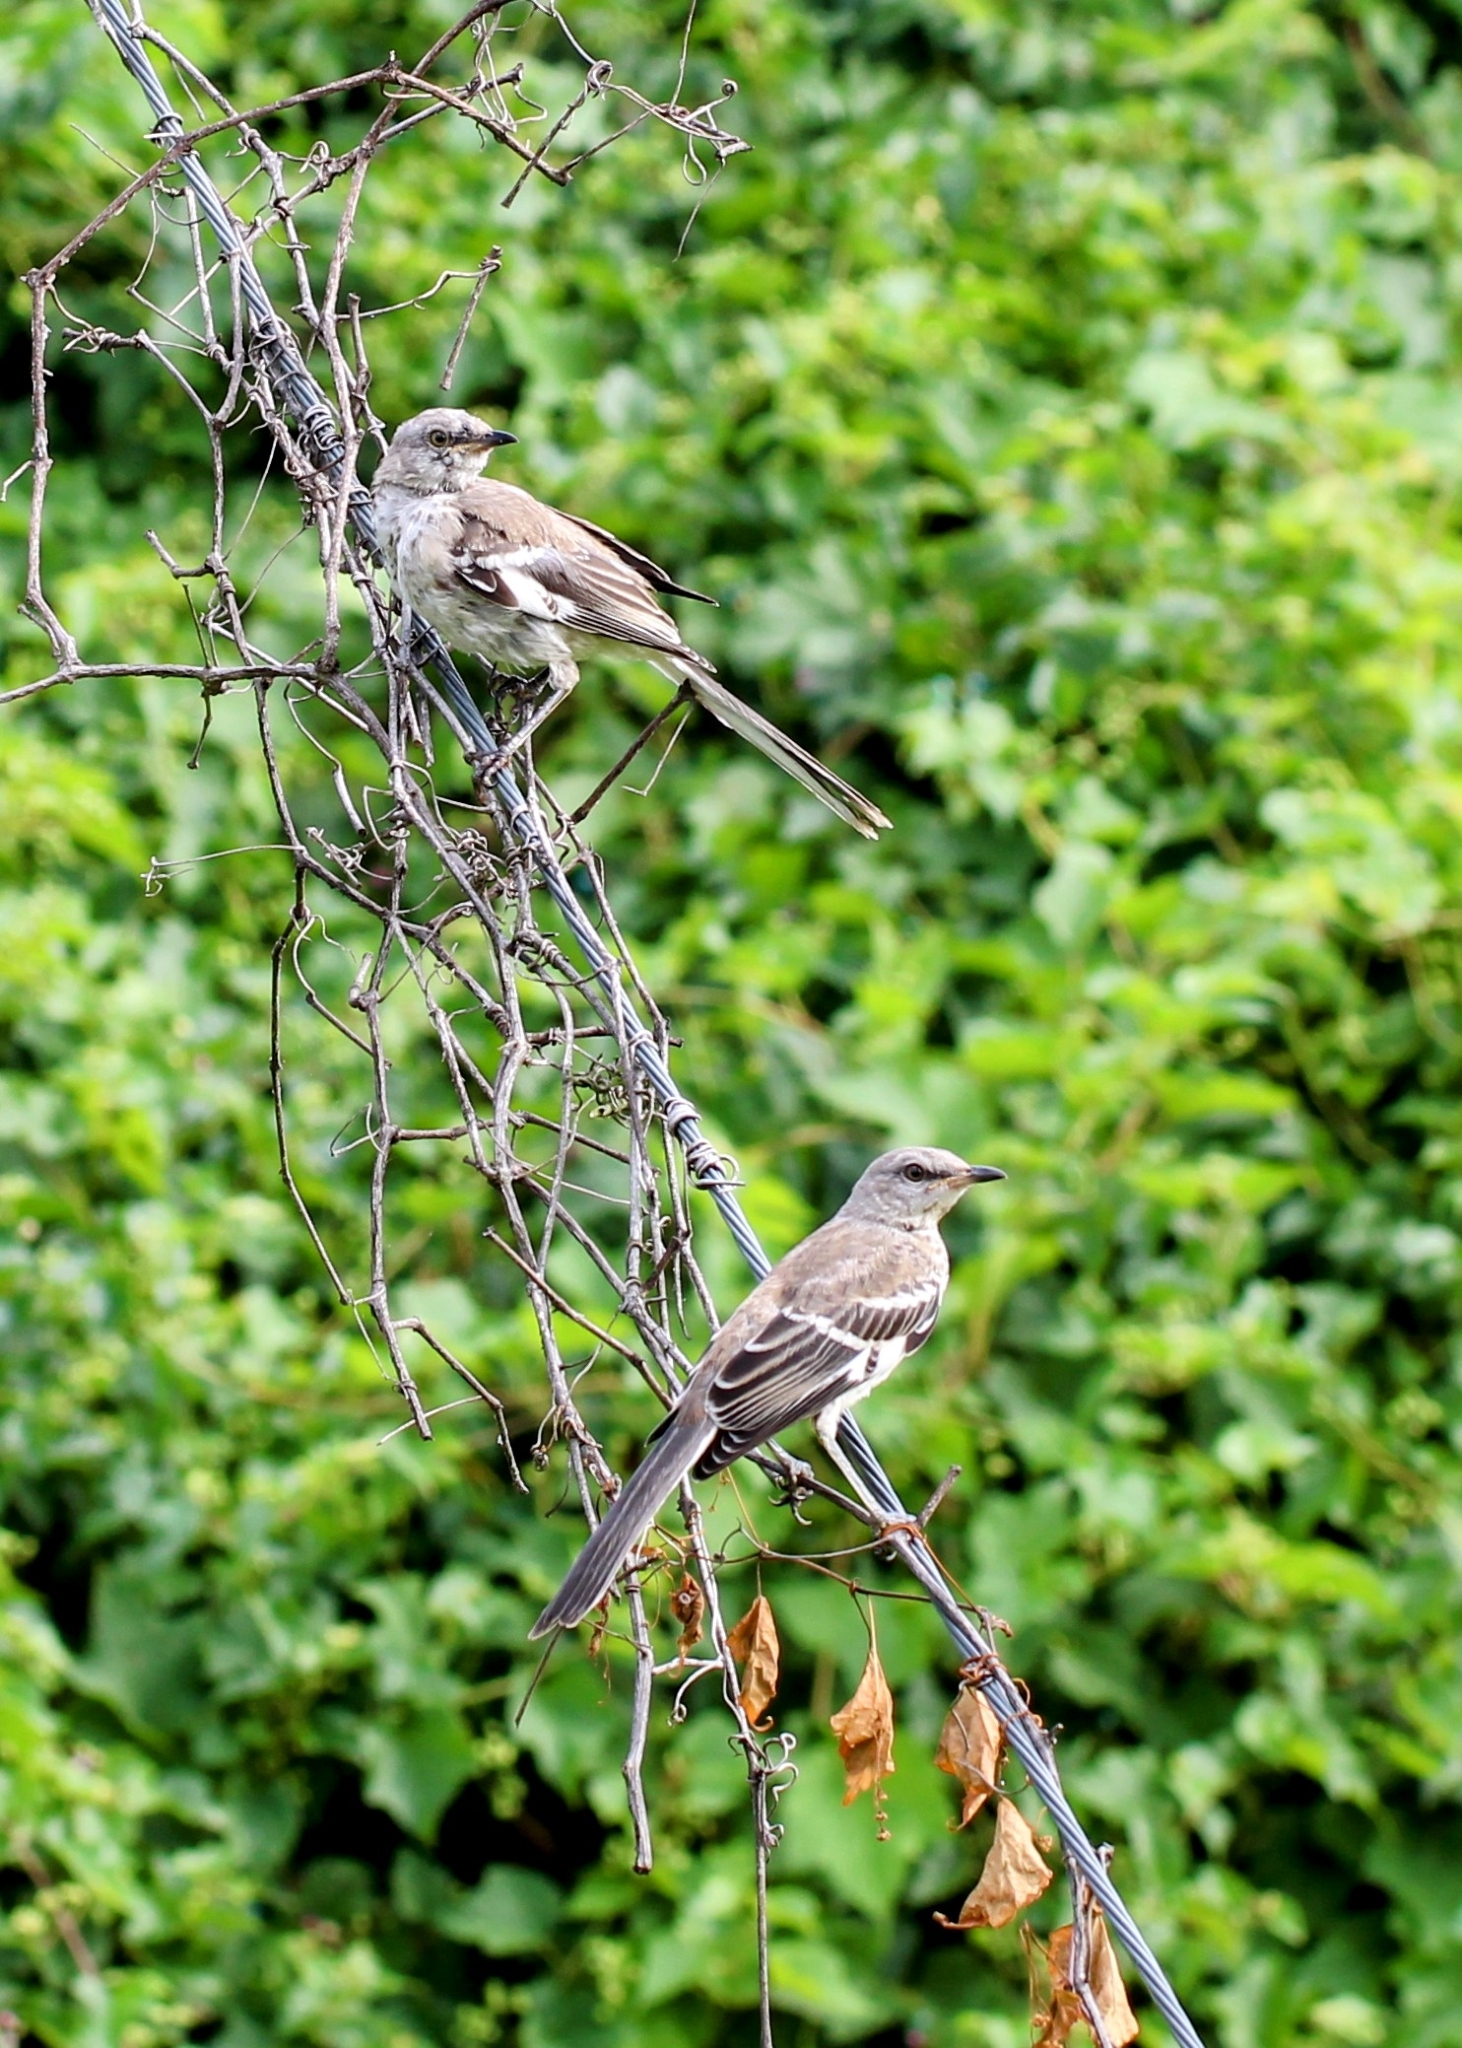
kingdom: Animalia
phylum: Chordata
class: Aves
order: Passeriformes
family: Mimidae
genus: Mimus
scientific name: Mimus polyglottos
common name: Northern mockingbird
